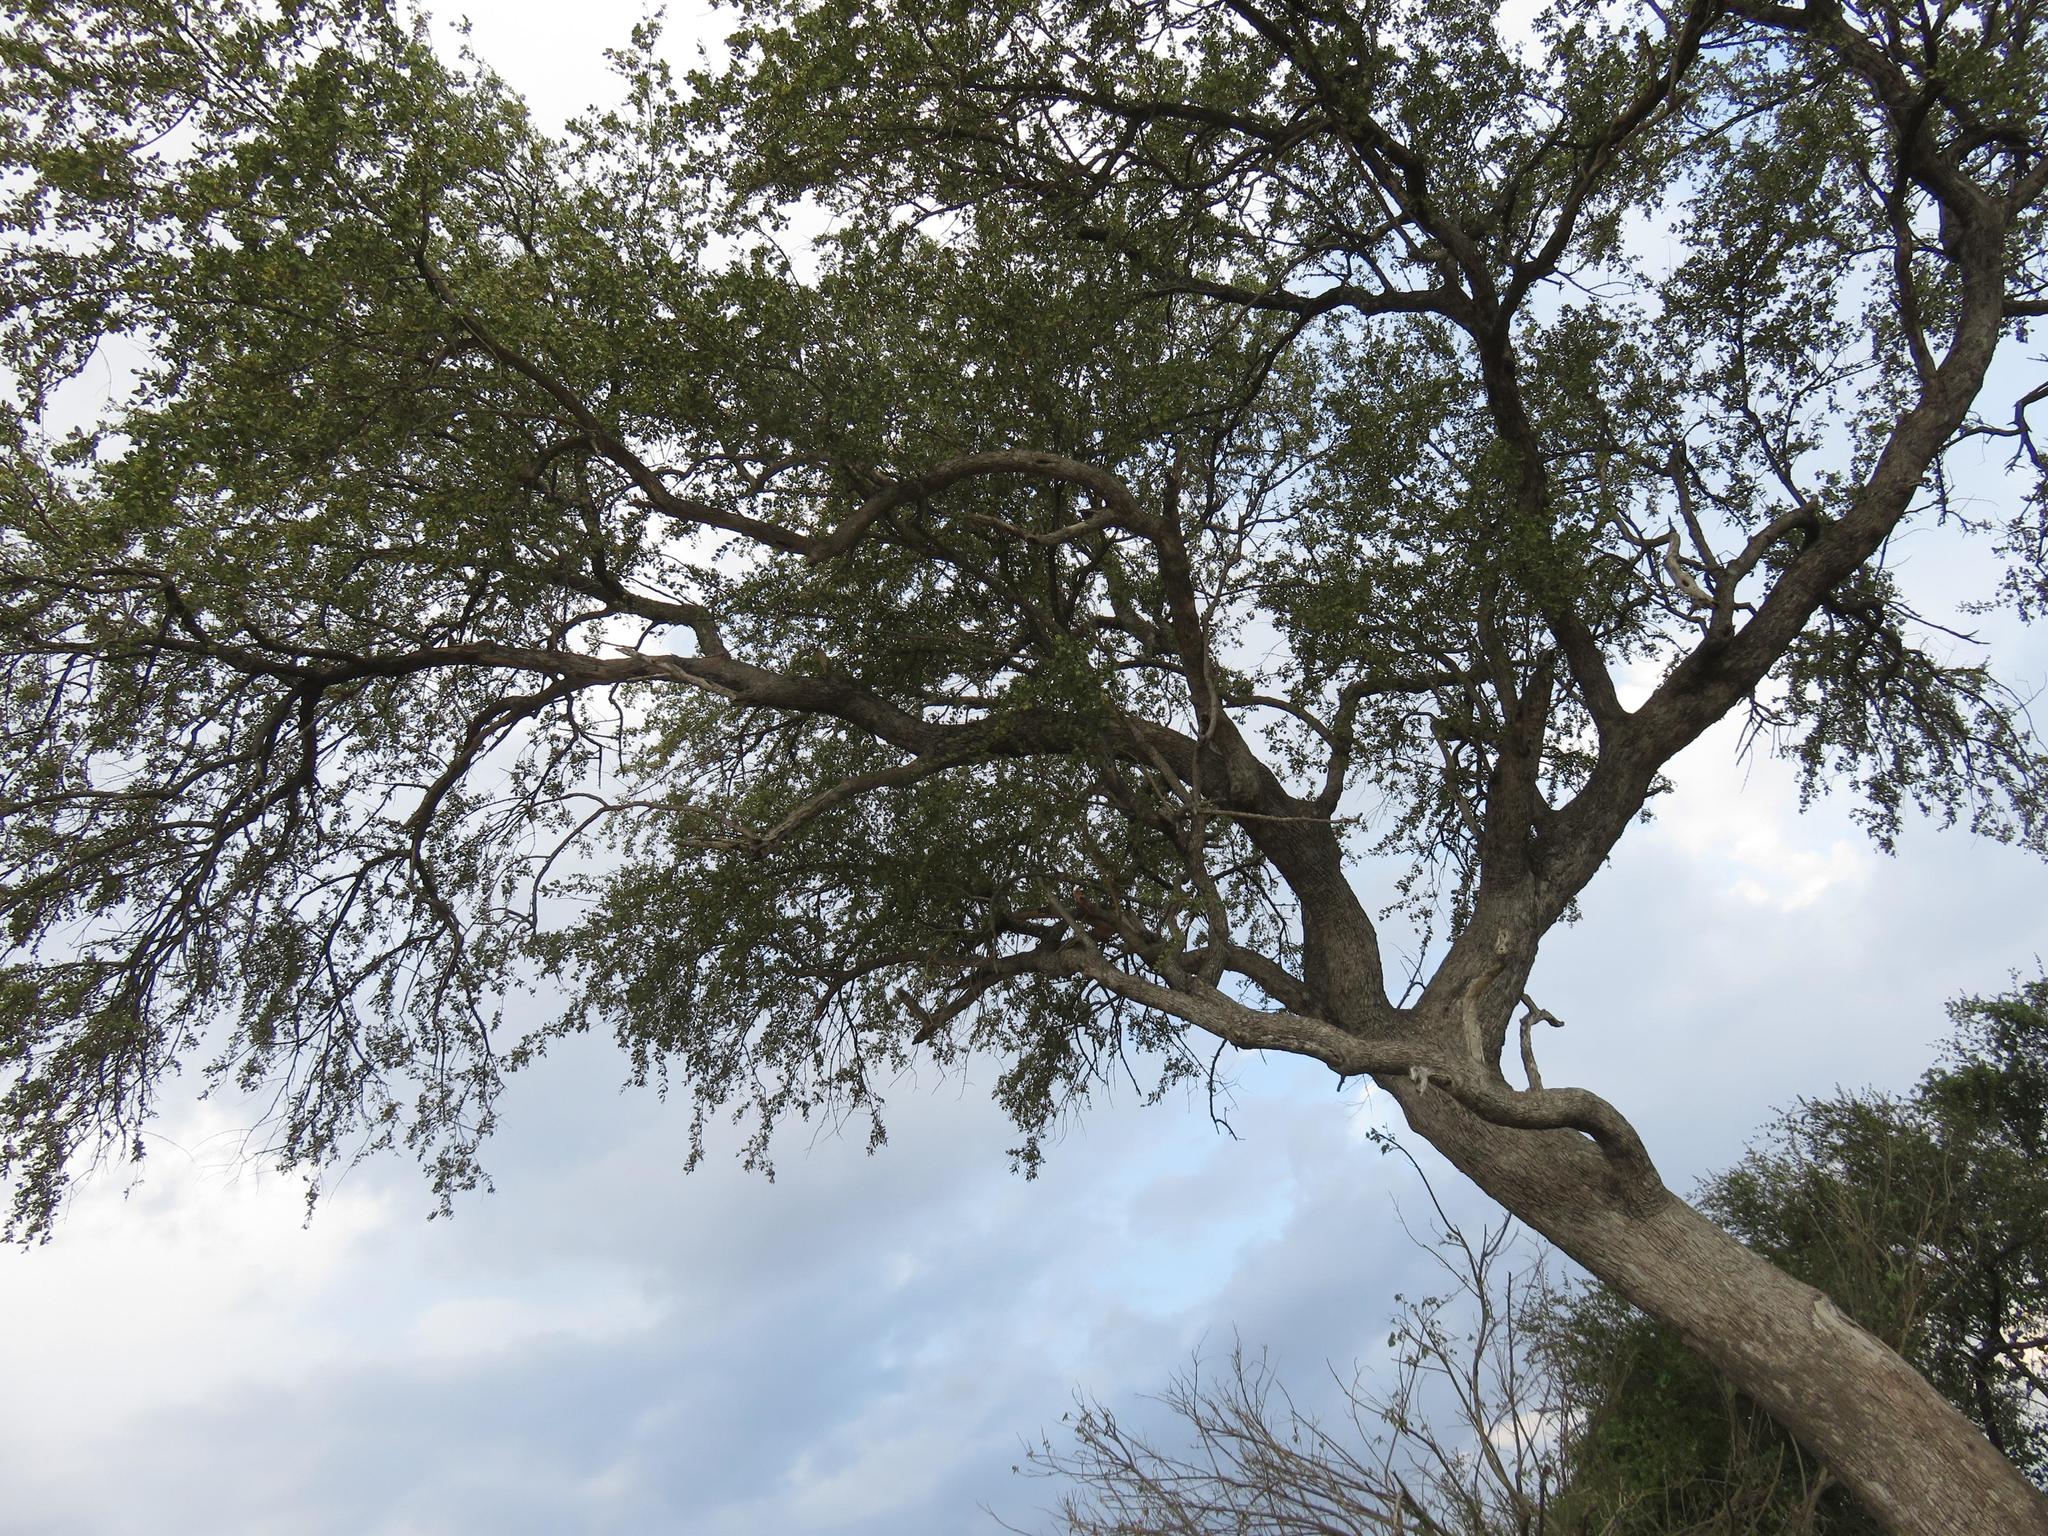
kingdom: Plantae
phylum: Tracheophyta
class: Magnoliopsida
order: Myrtales
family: Combretaceae
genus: Combretum
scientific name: Combretum imberbe
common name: Leadwood
